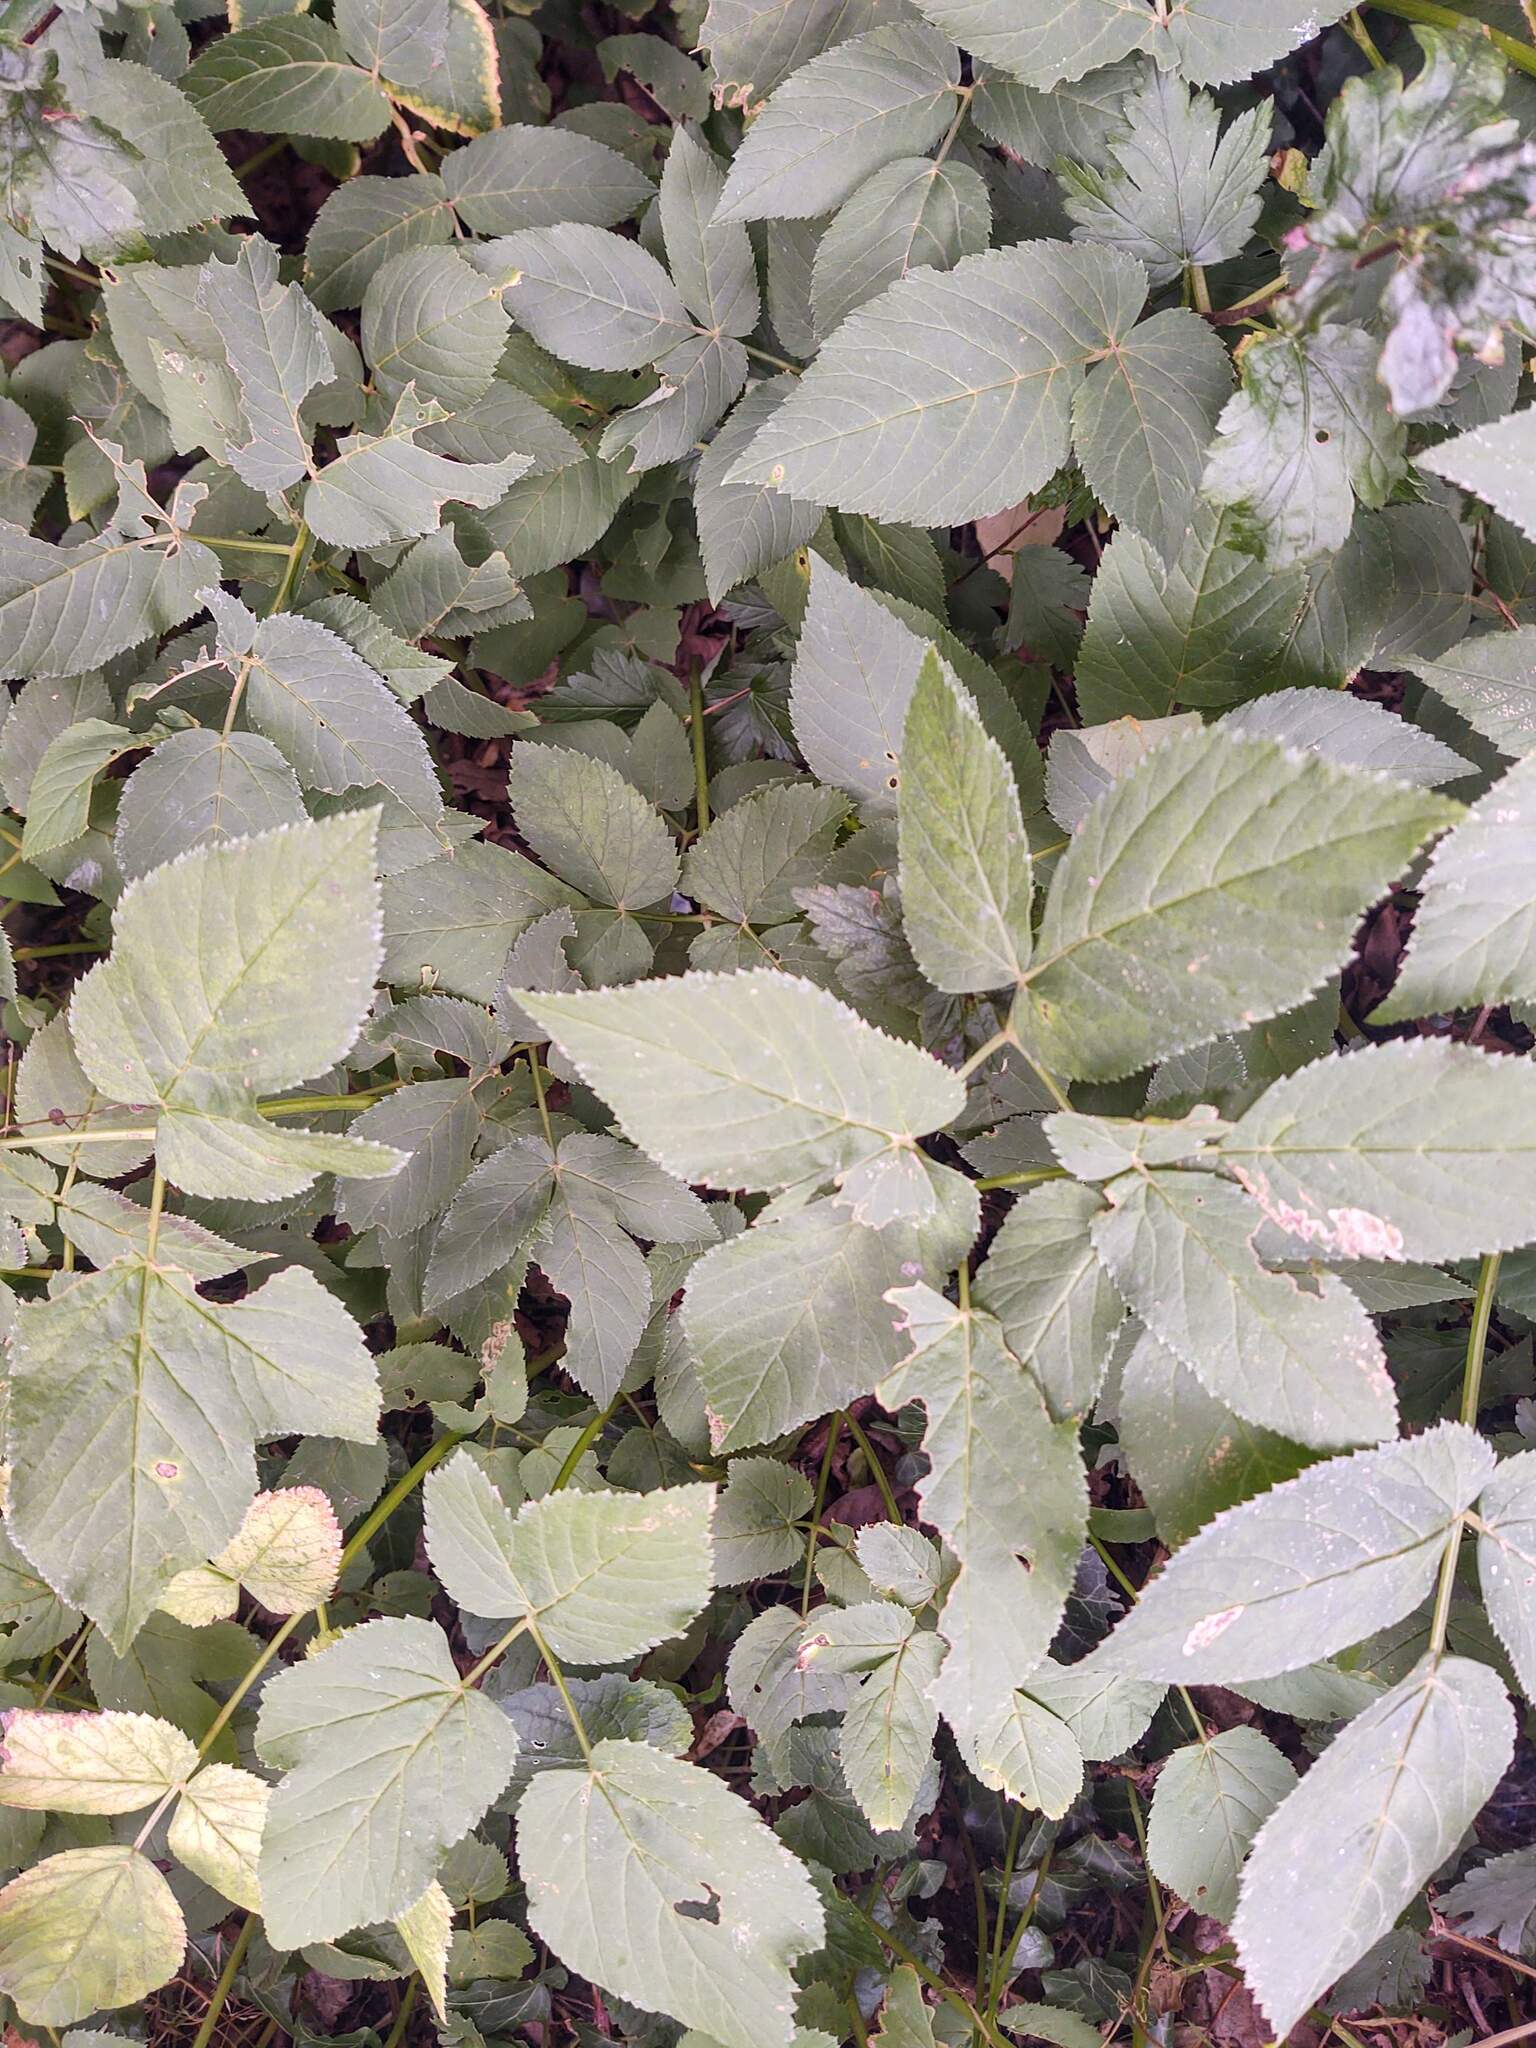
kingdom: Plantae
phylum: Tracheophyta
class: Magnoliopsida
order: Apiales
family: Apiaceae
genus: Aegopodium
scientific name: Aegopodium podagraria
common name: Ground-elder
